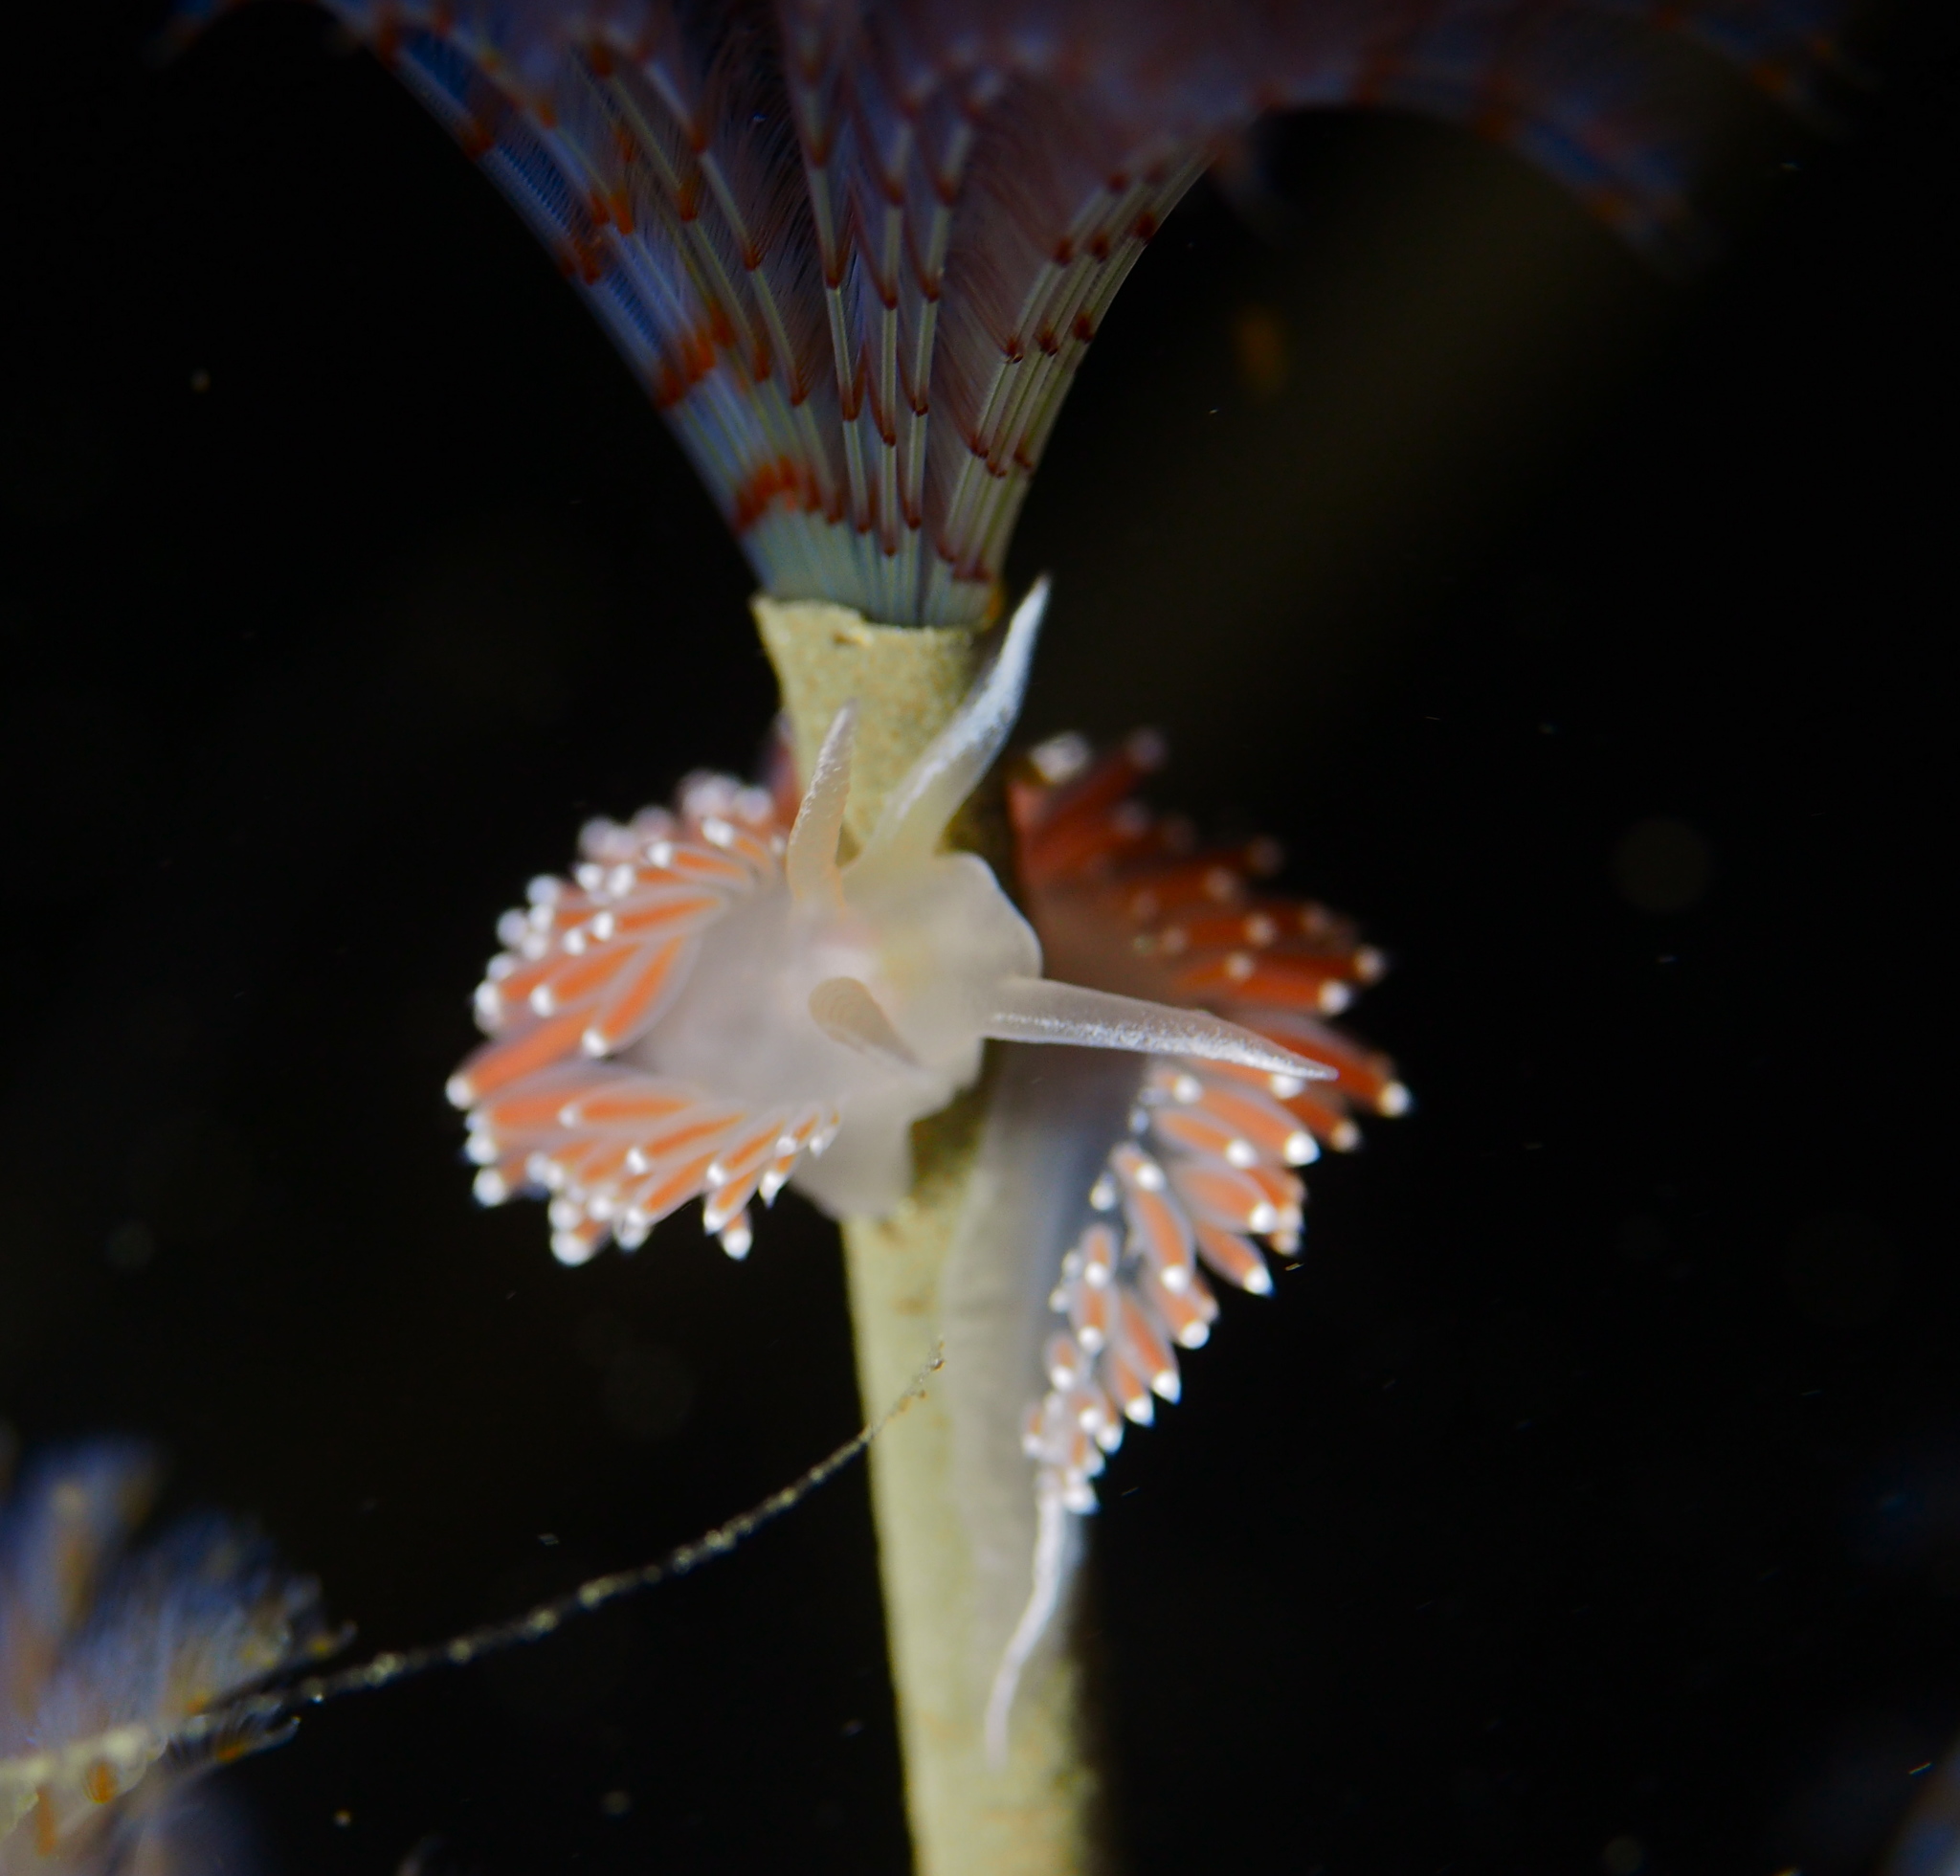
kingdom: Animalia
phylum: Mollusca
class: Gastropoda
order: Nudibranchia
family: Coryphellidae
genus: Coryphella
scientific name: Coryphella verrucosa
